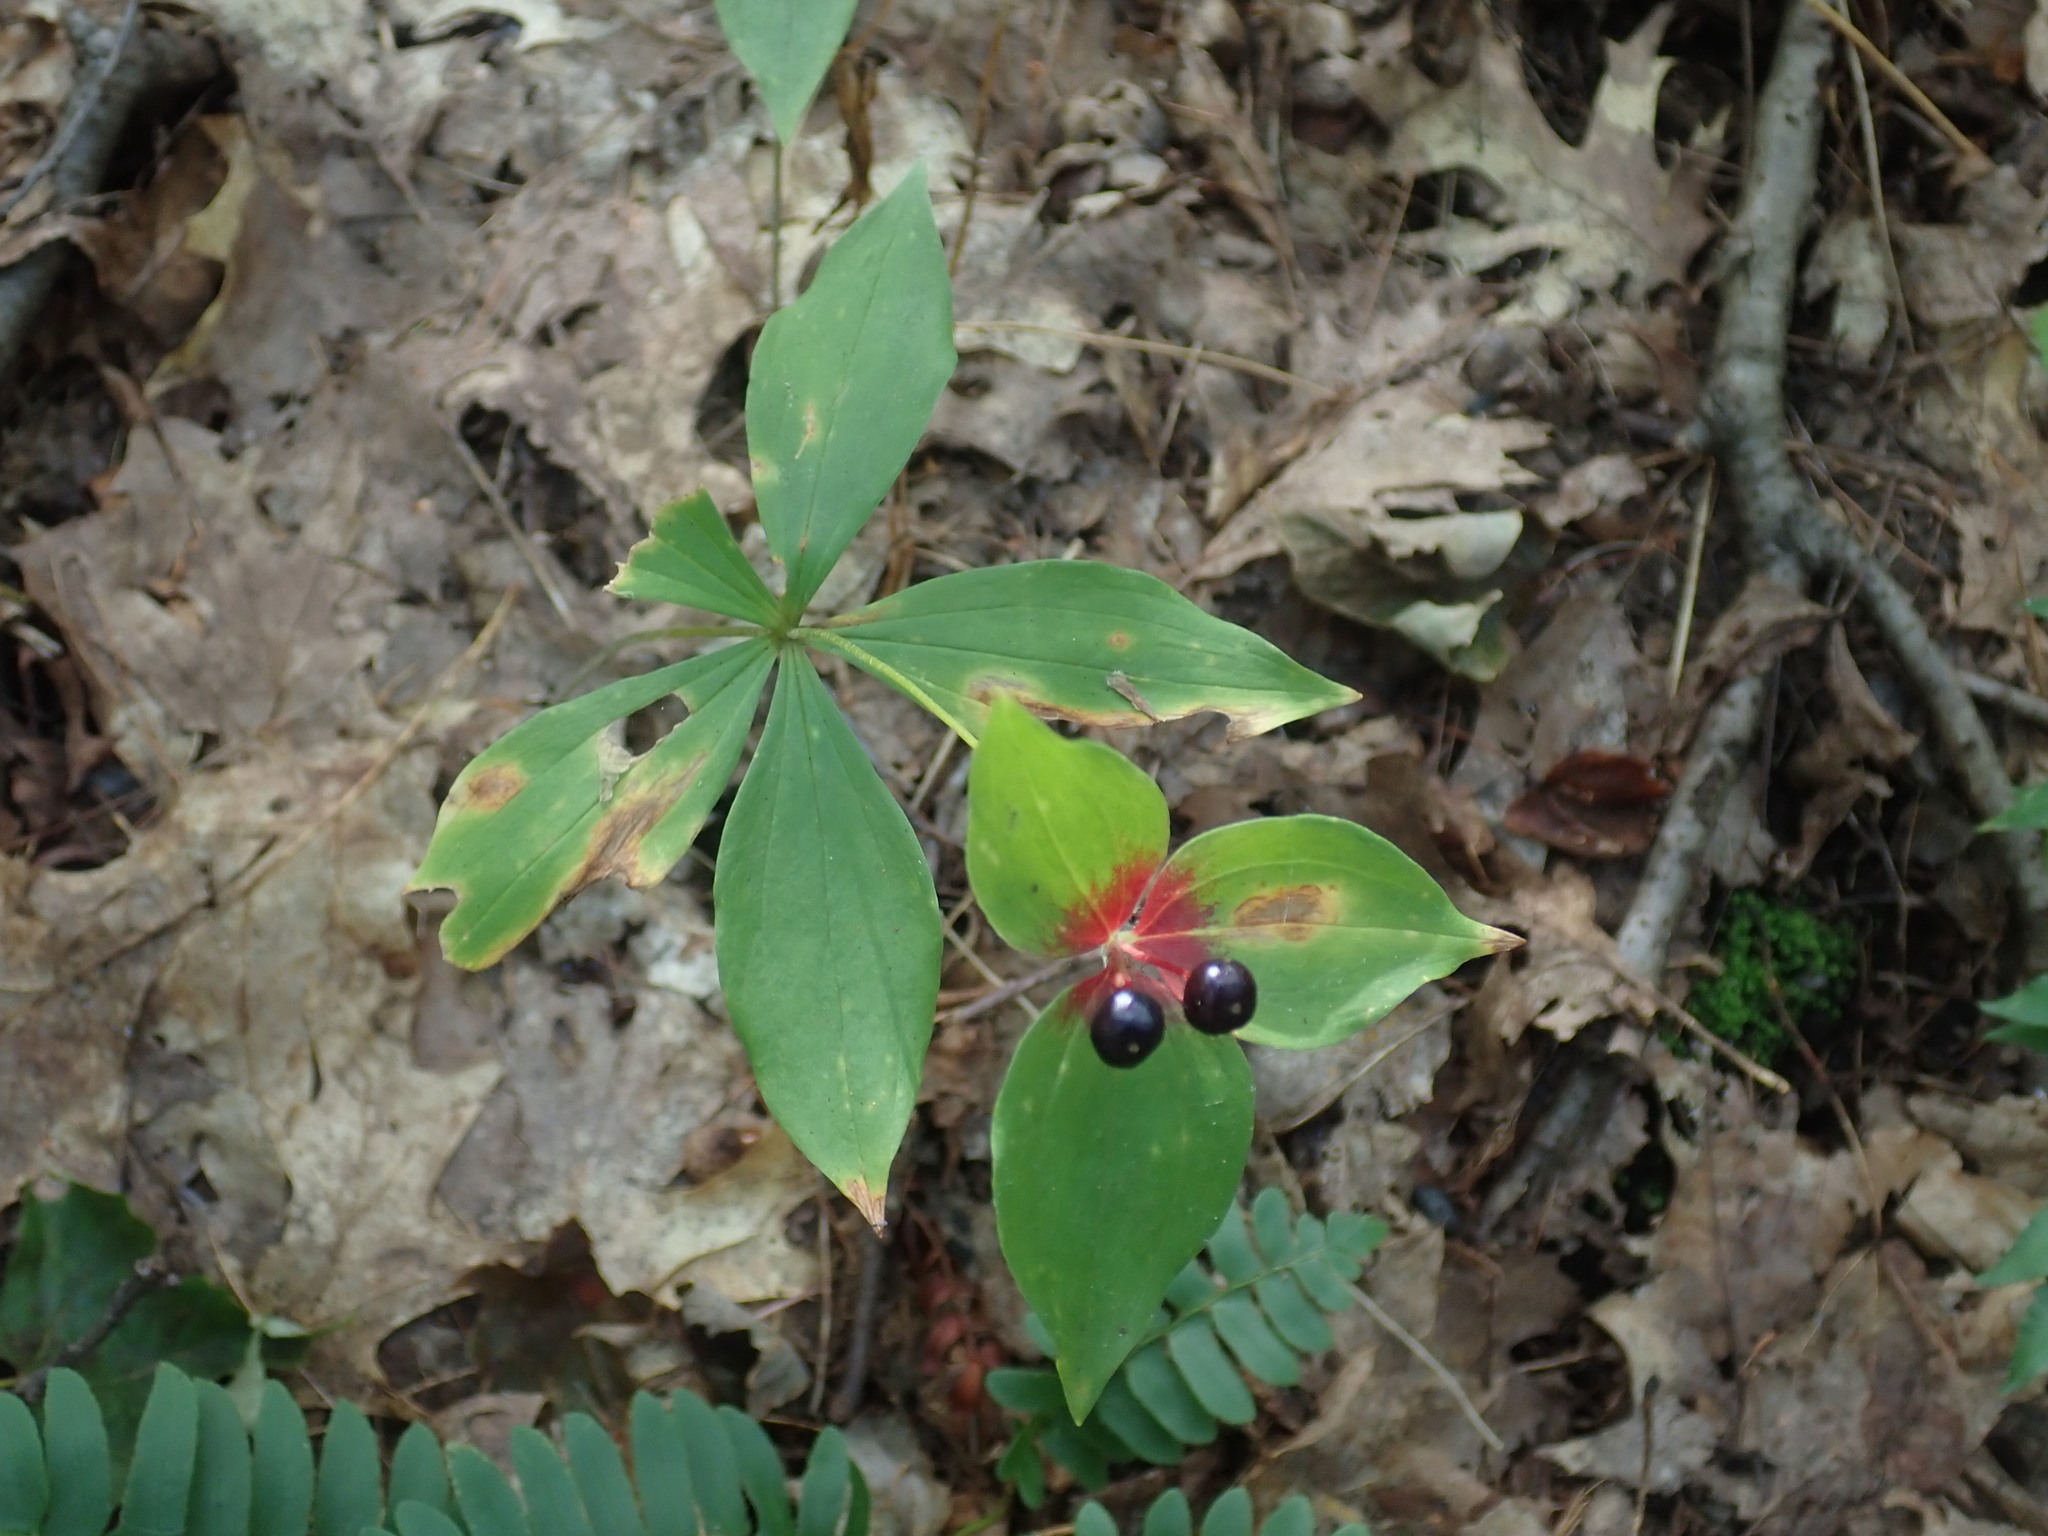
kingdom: Plantae
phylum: Tracheophyta
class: Liliopsida
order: Liliales
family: Liliaceae
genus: Medeola
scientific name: Medeola virginiana
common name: Indian cucumber-root
